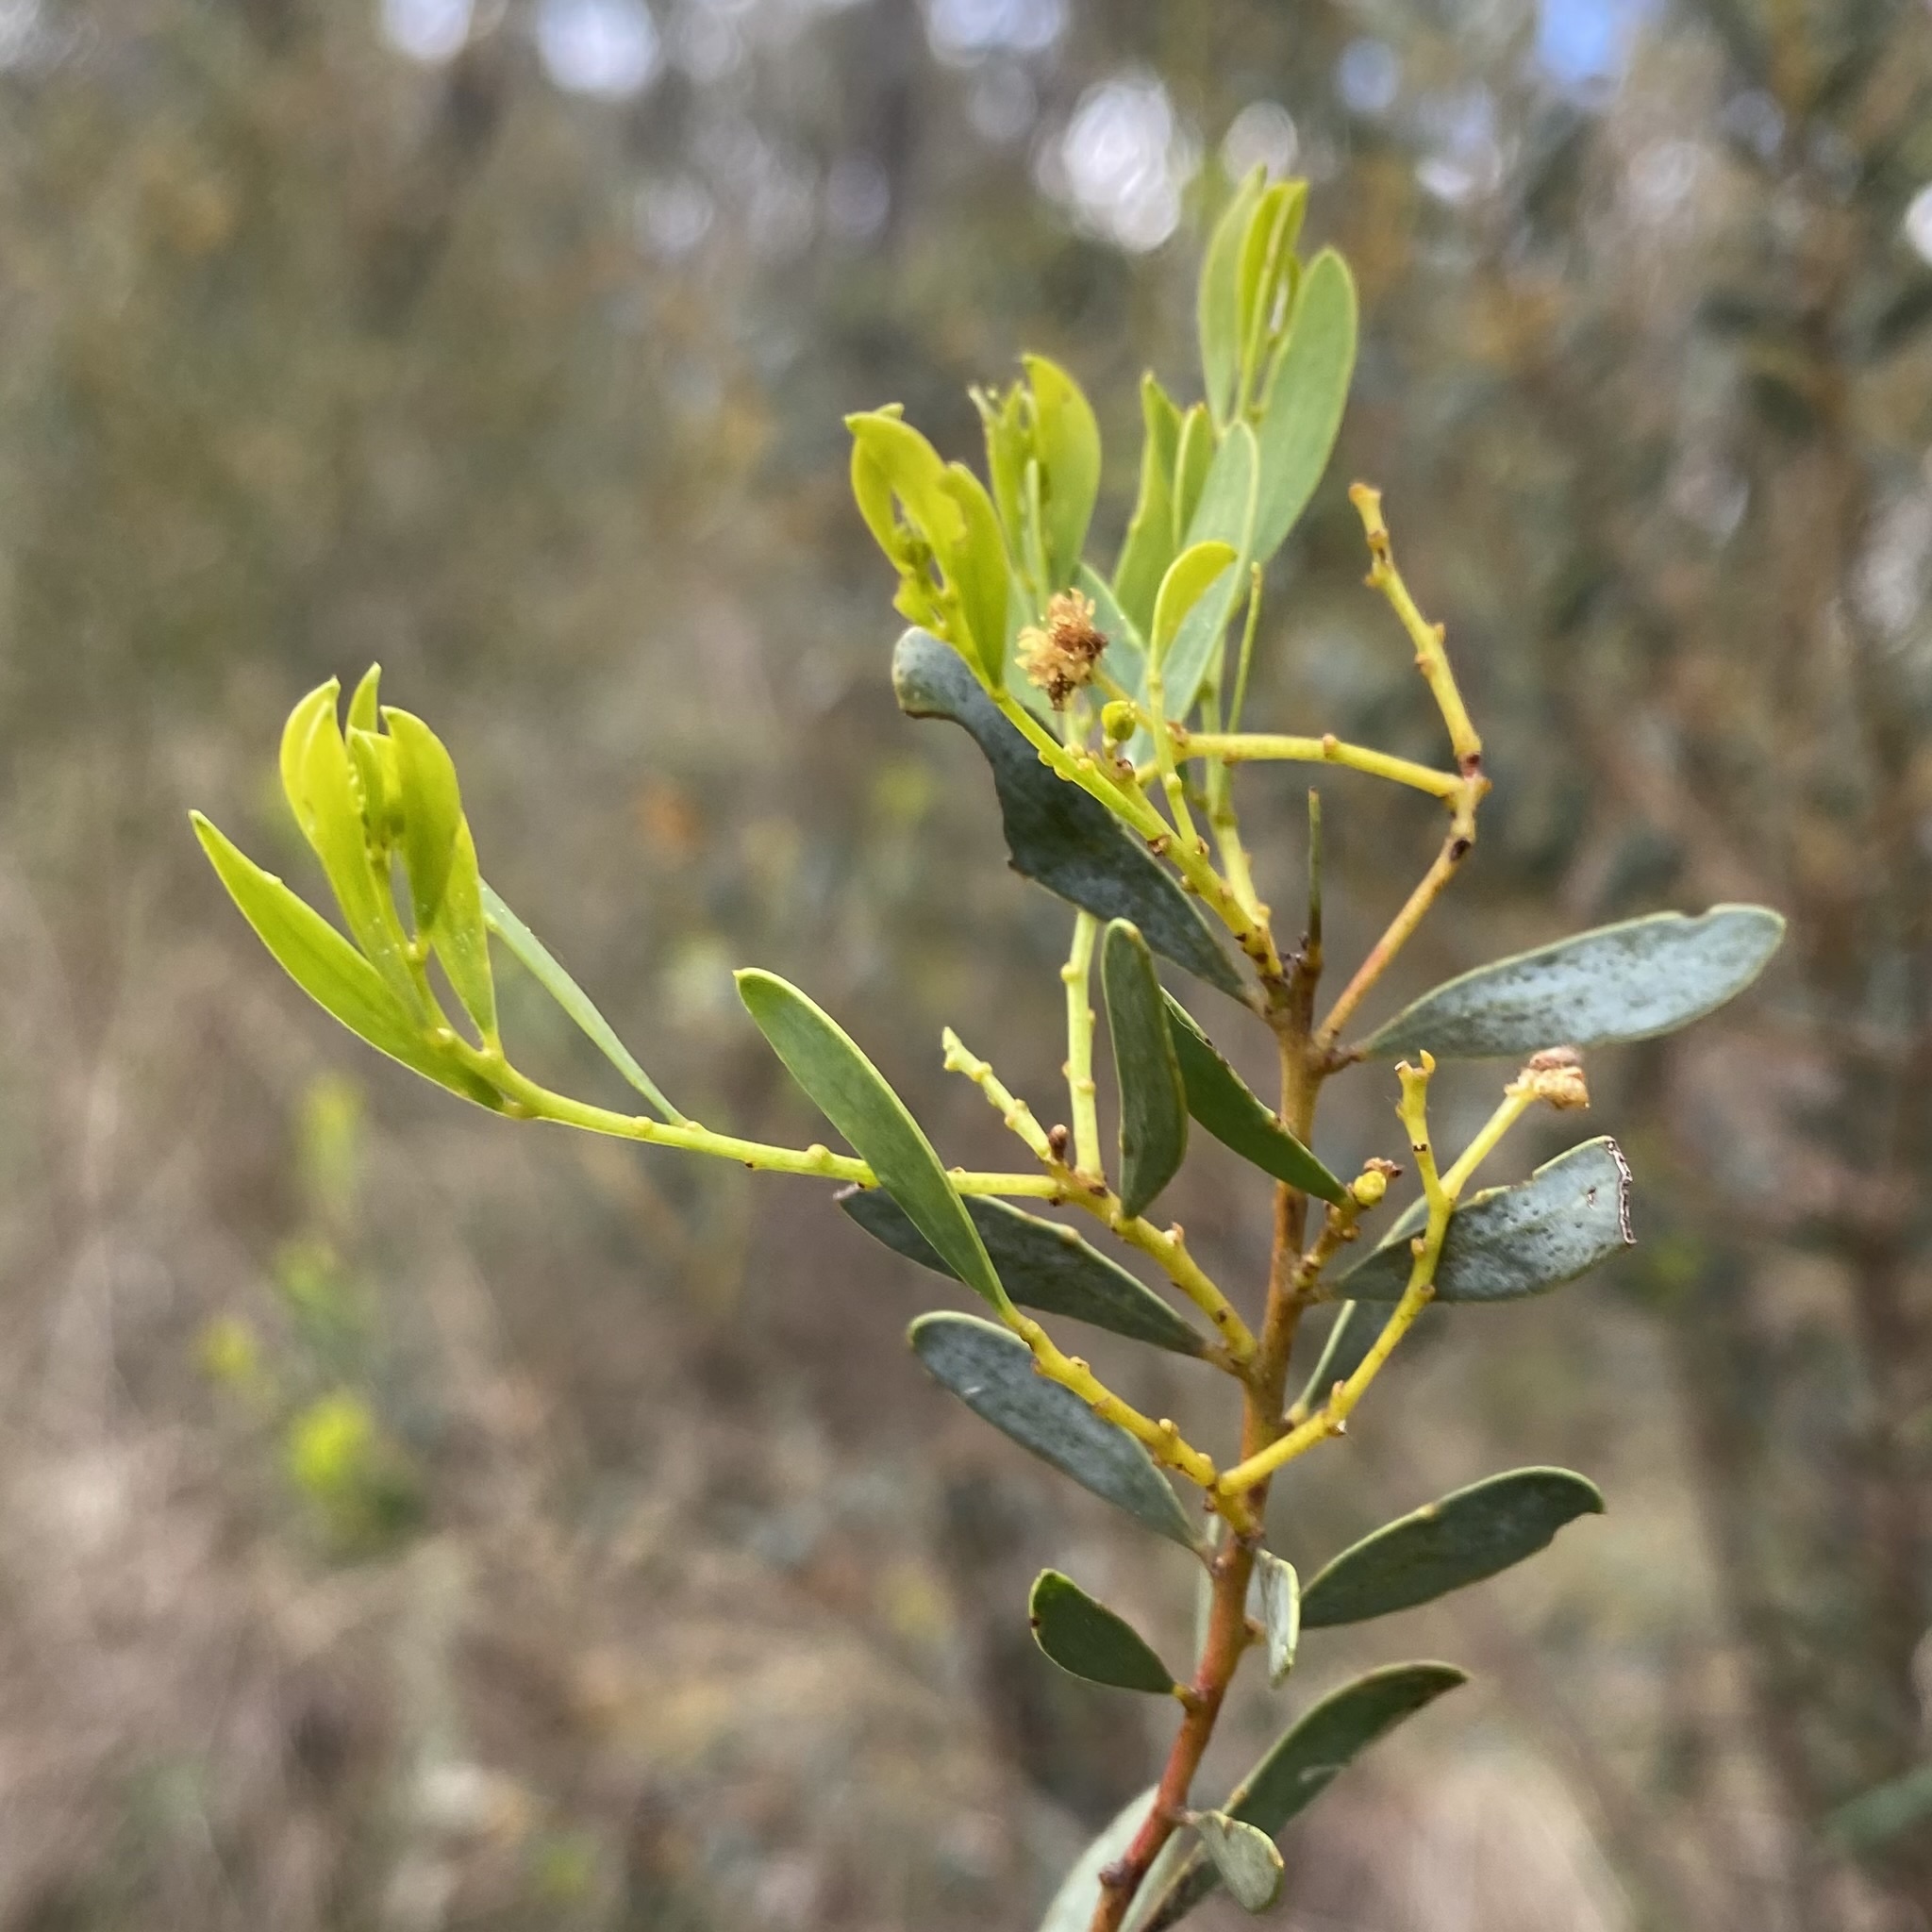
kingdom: Plantae
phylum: Tracheophyta
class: Magnoliopsida
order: Fabales
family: Fabaceae
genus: Acacia
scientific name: Acacia buxifolia
